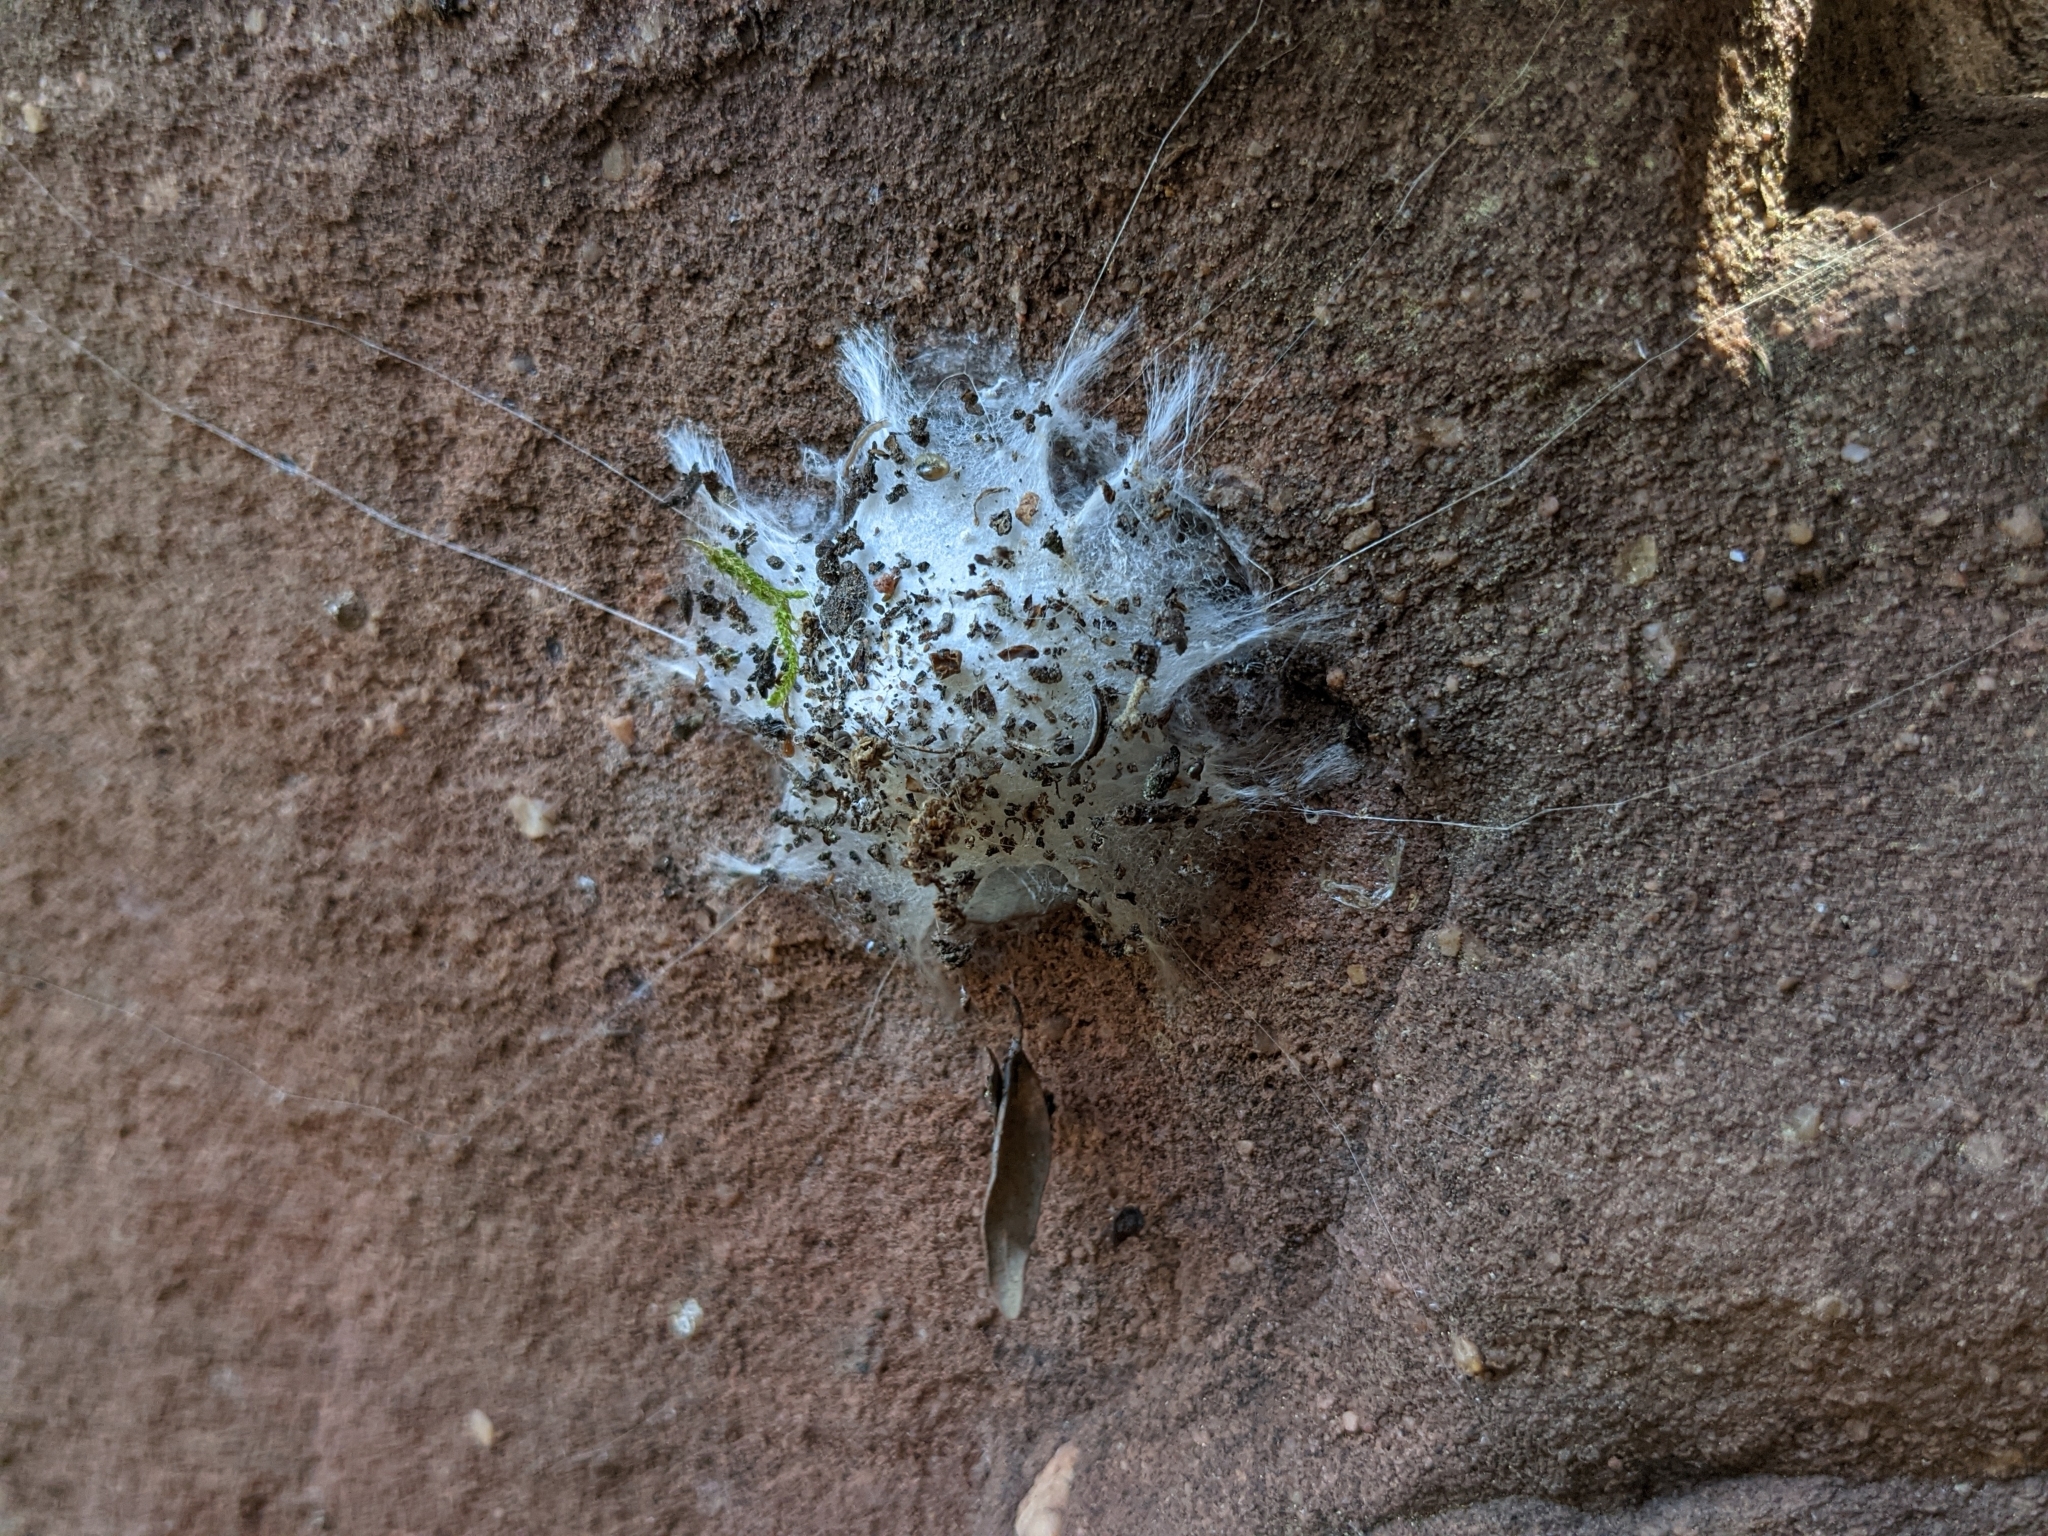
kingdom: Animalia
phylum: Arthropoda
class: Arachnida
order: Araneae
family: Oecobiidae
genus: Uroctea
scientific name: Uroctea durandi
